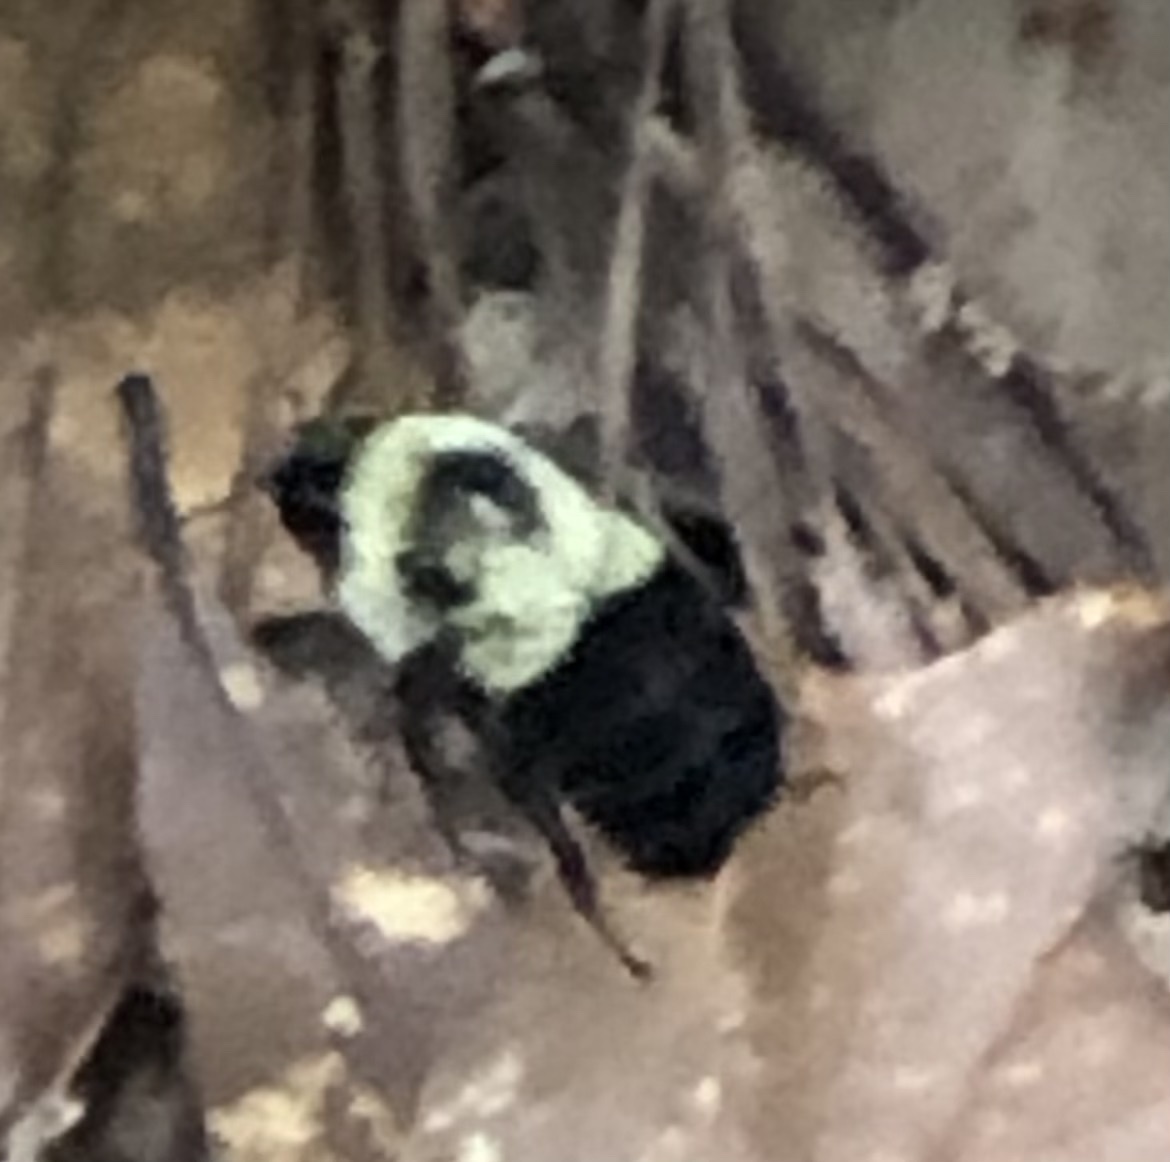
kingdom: Animalia
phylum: Arthropoda
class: Insecta
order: Hymenoptera
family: Apidae
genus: Bombus
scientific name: Bombus impatiens
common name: Common eastern bumble bee
